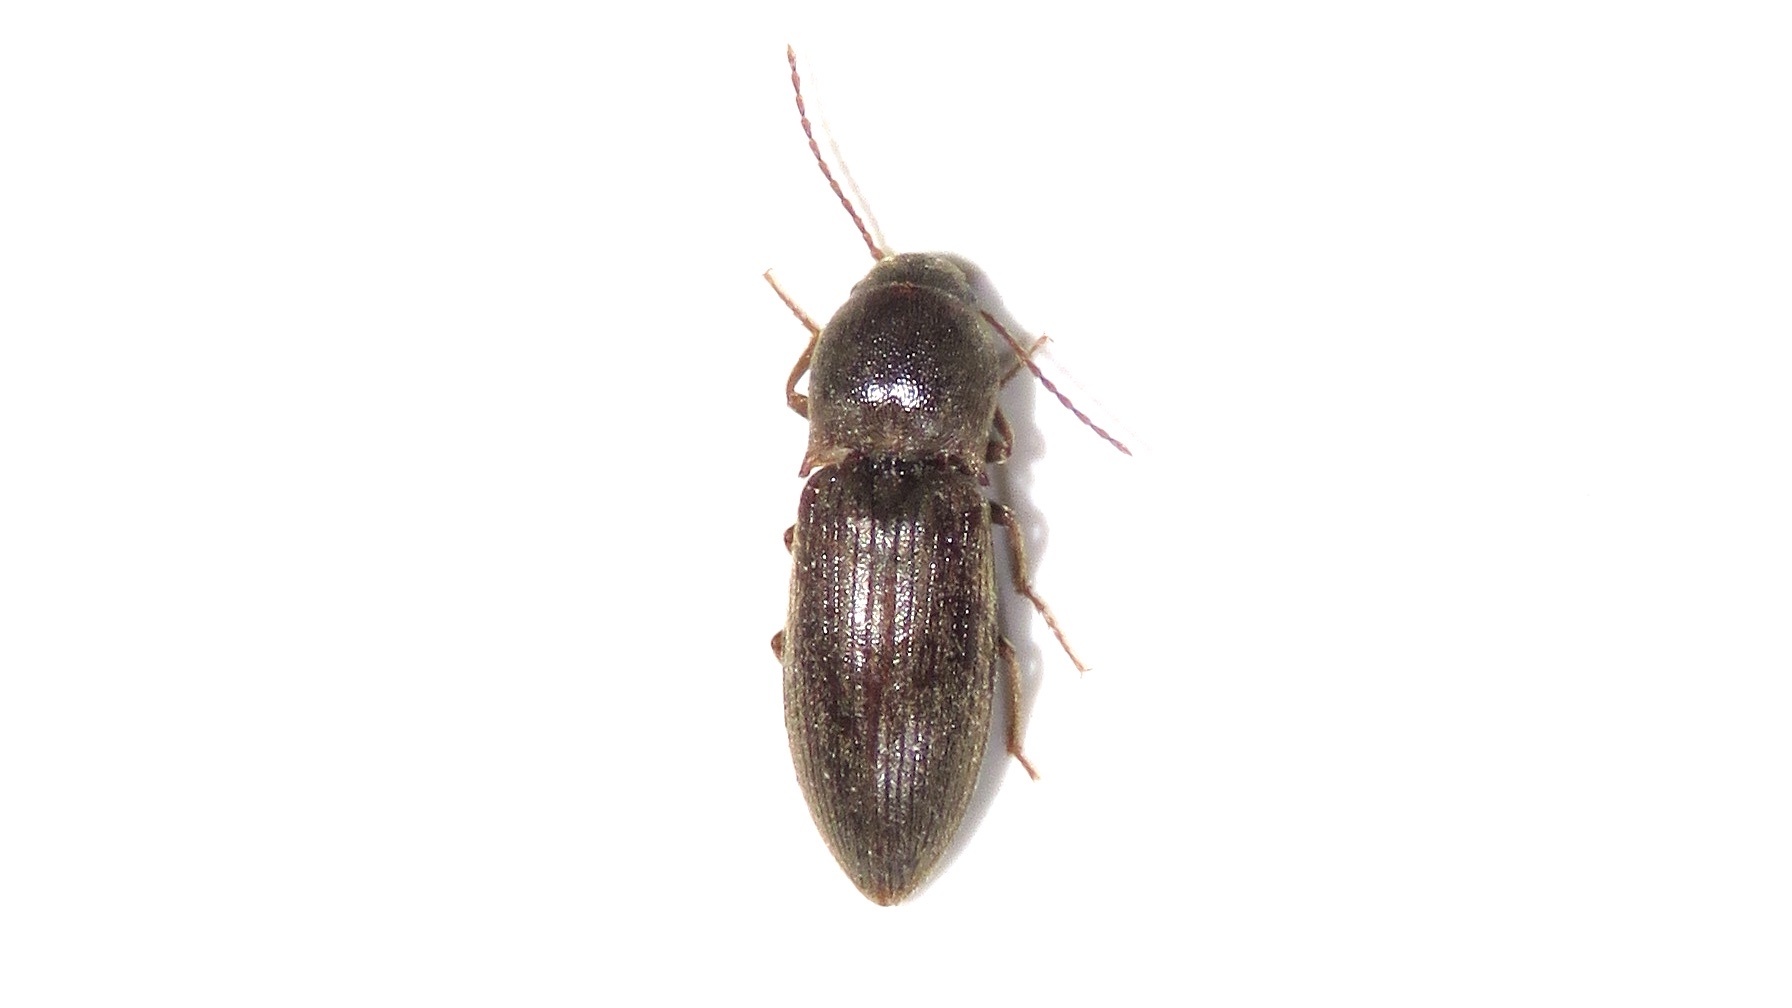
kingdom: Animalia
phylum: Arthropoda
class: Insecta
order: Coleoptera
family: Elateridae
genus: Agriotes
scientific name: Agriotes mancus
